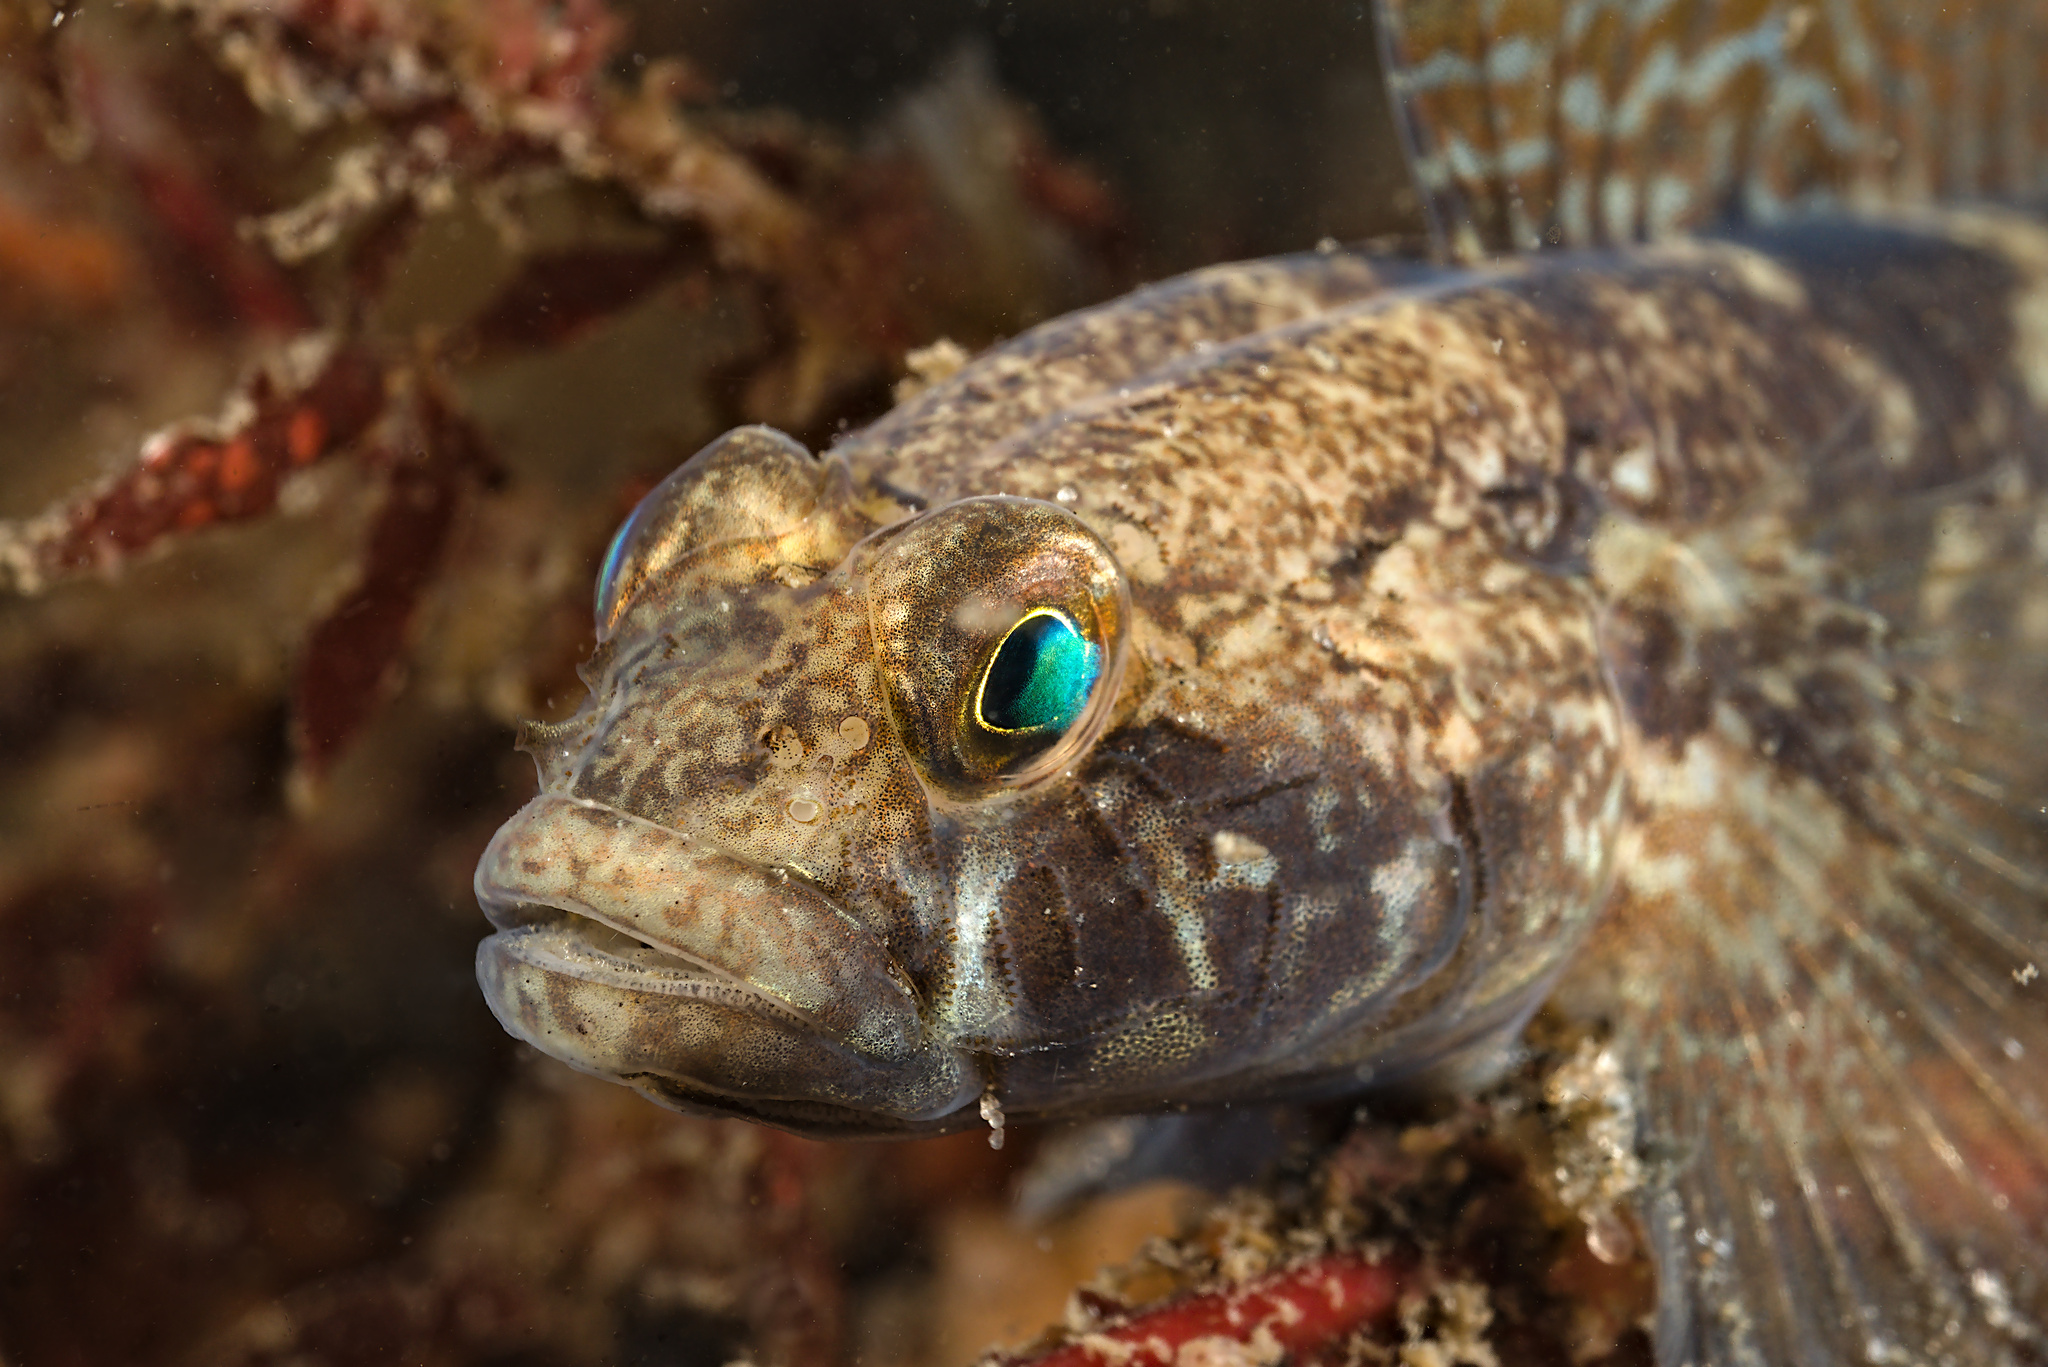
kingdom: Animalia
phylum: Chordata
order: Perciformes
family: Gobiidae
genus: Gobius
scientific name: Gobius niger
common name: Black goby
